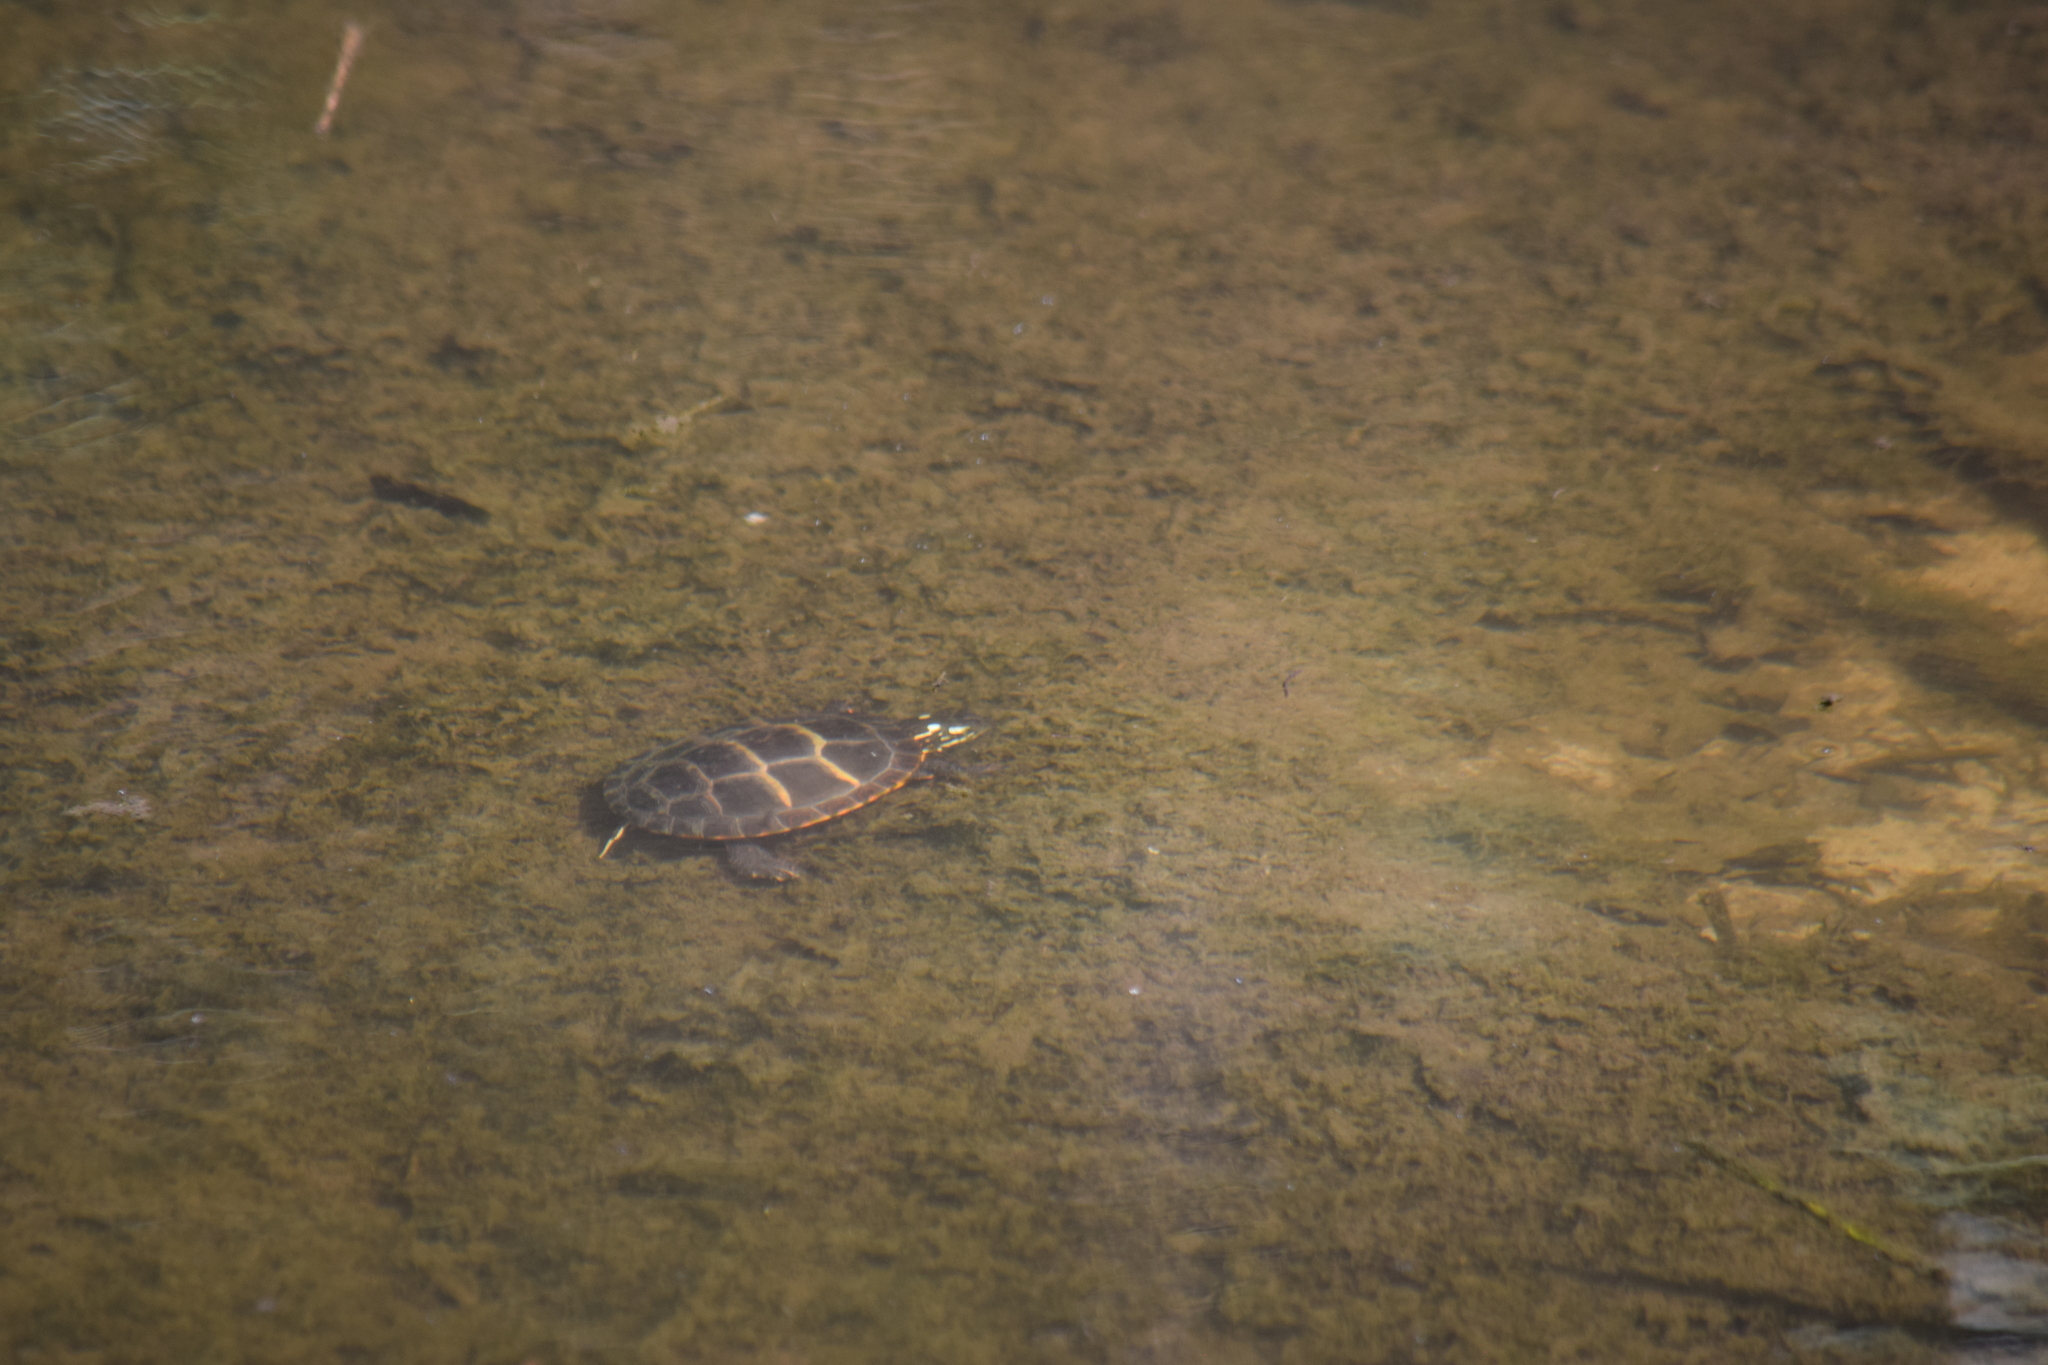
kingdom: Animalia
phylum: Chordata
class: Testudines
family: Emydidae
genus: Chrysemys
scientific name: Chrysemys picta
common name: Painted turtle
